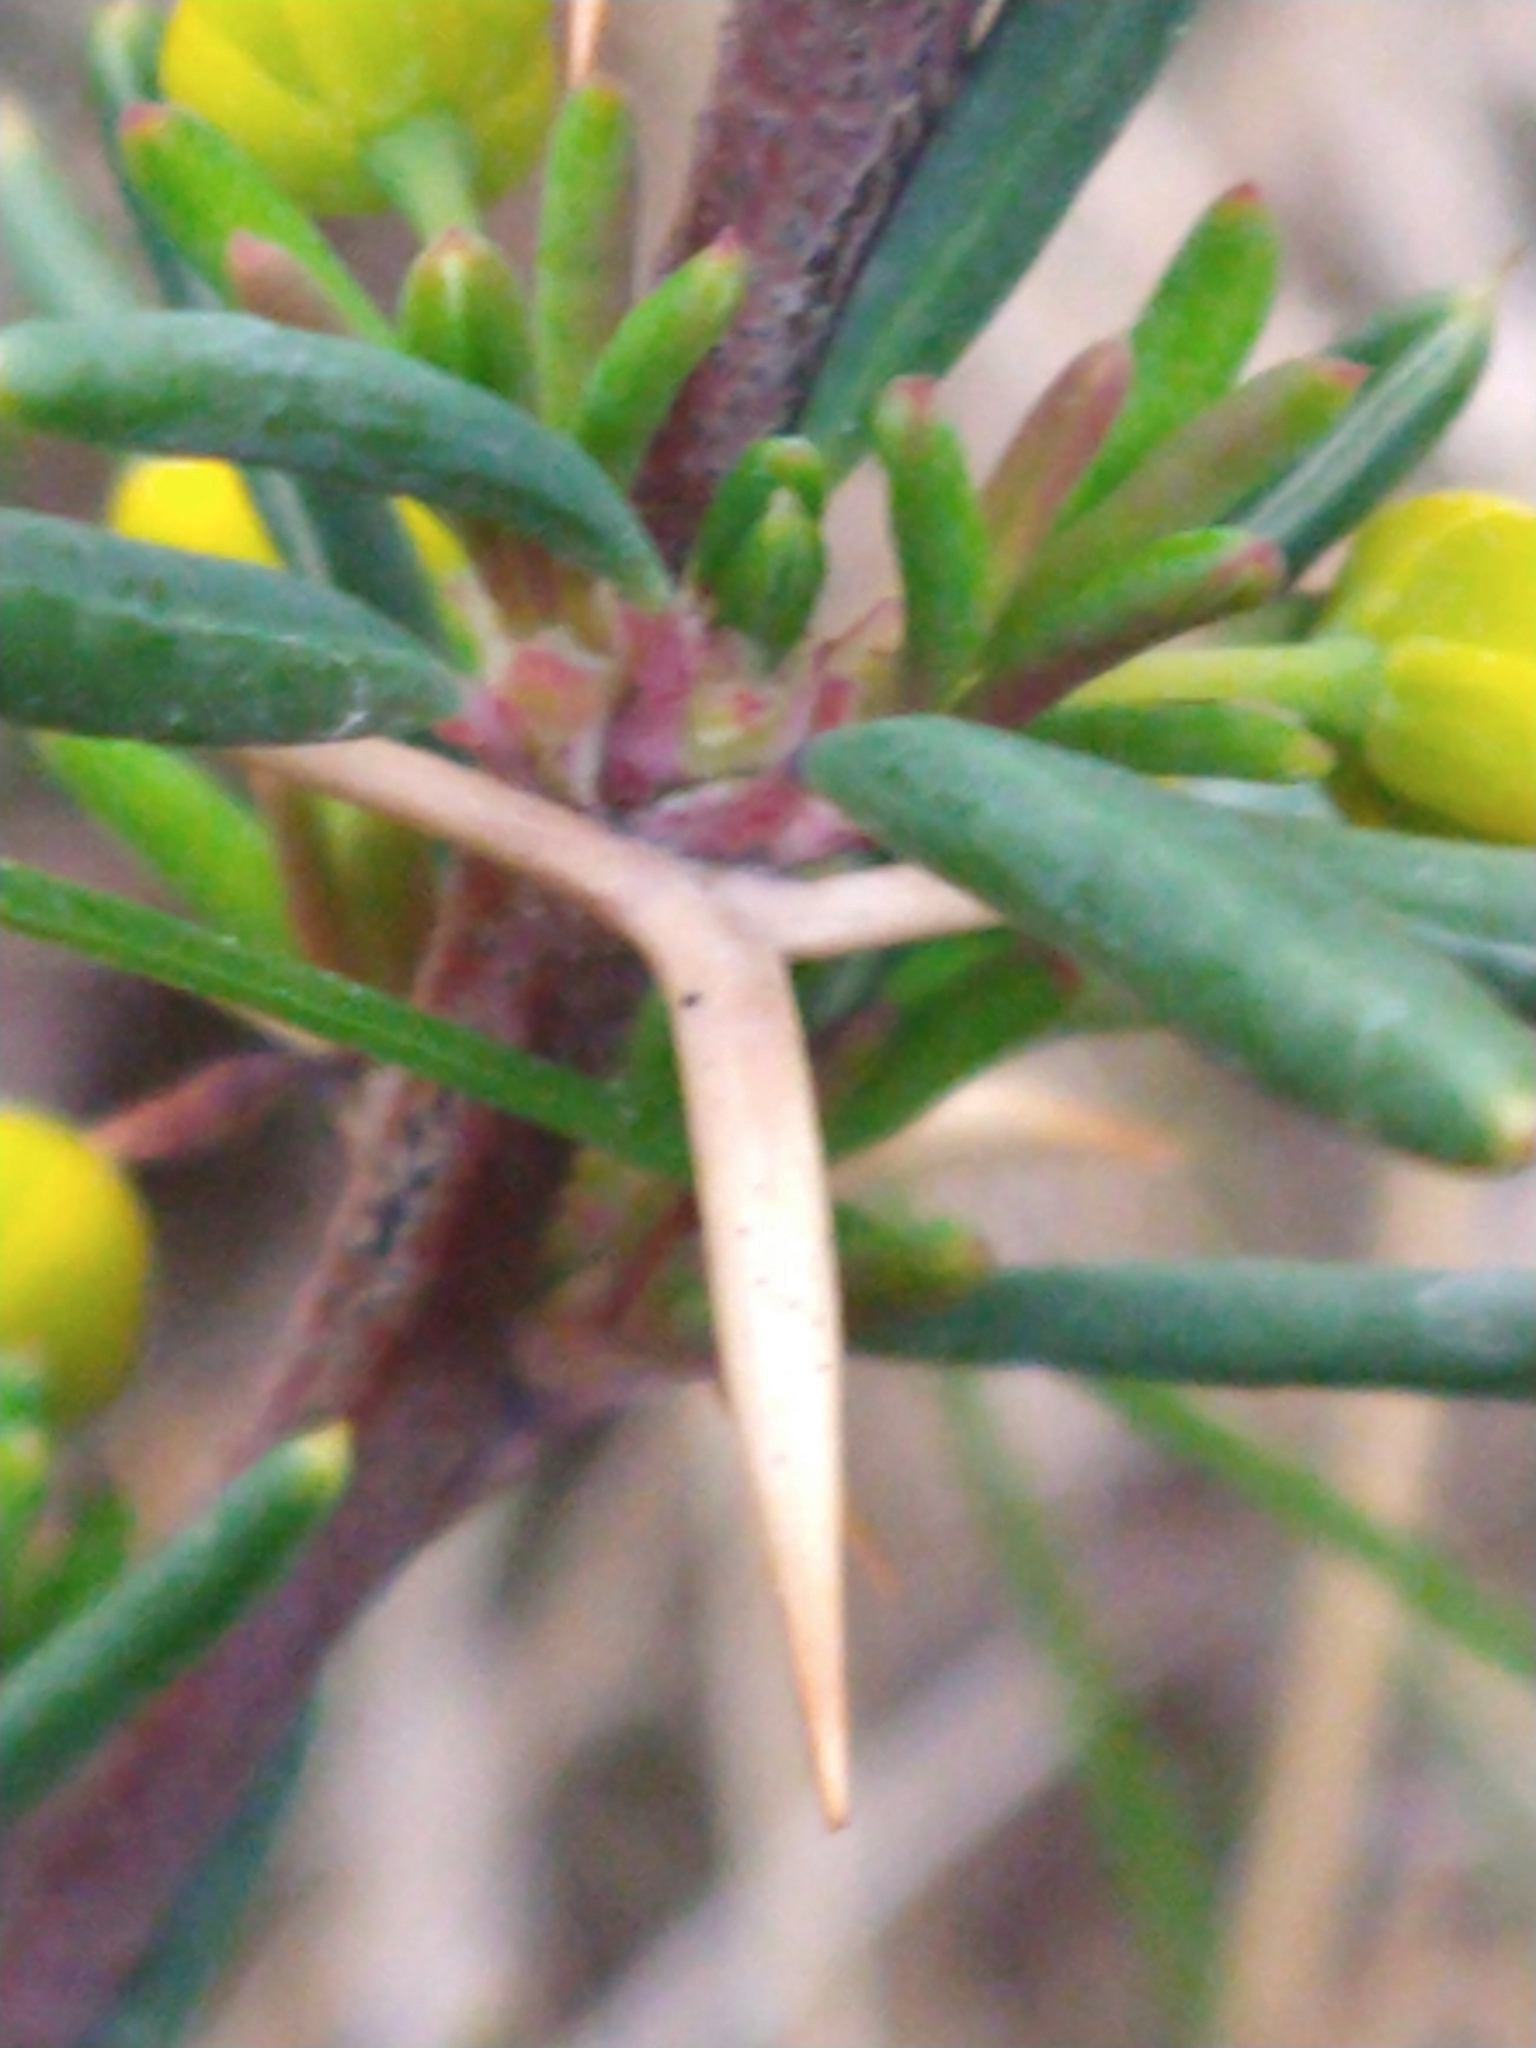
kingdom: Plantae
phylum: Tracheophyta
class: Magnoliopsida
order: Ranunculales
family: Berberidaceae
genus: Berberis
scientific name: Berberis empetrifolia
